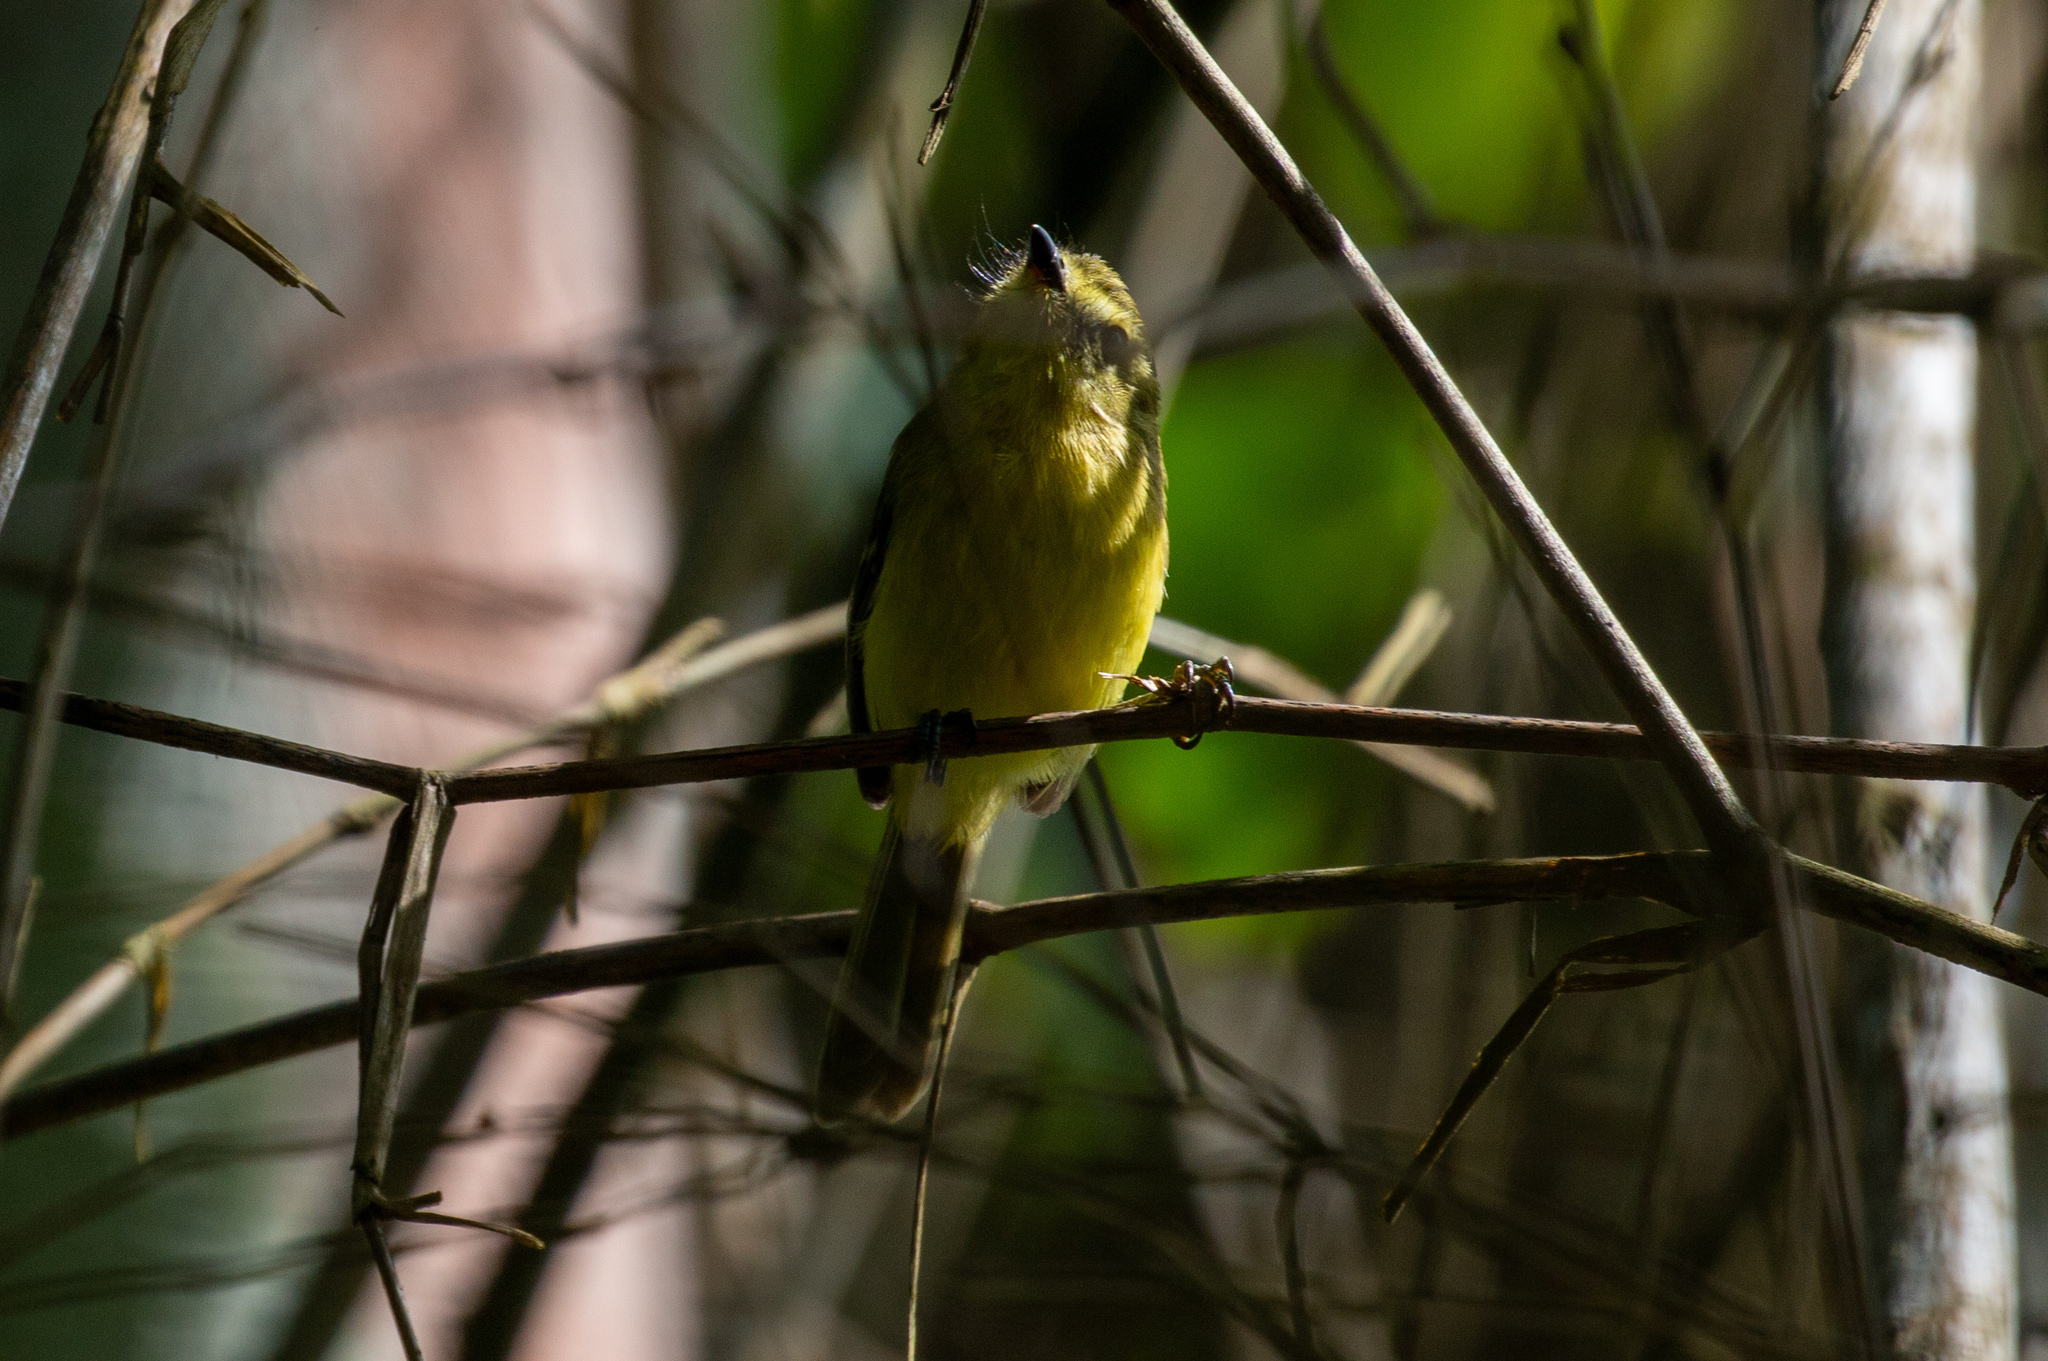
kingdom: Animalia
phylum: Chordata
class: Aves
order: Passeriformes
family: Tyrannidae
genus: Capsiempis
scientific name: Capsiempis flaveola
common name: Yellow tyrannulet
